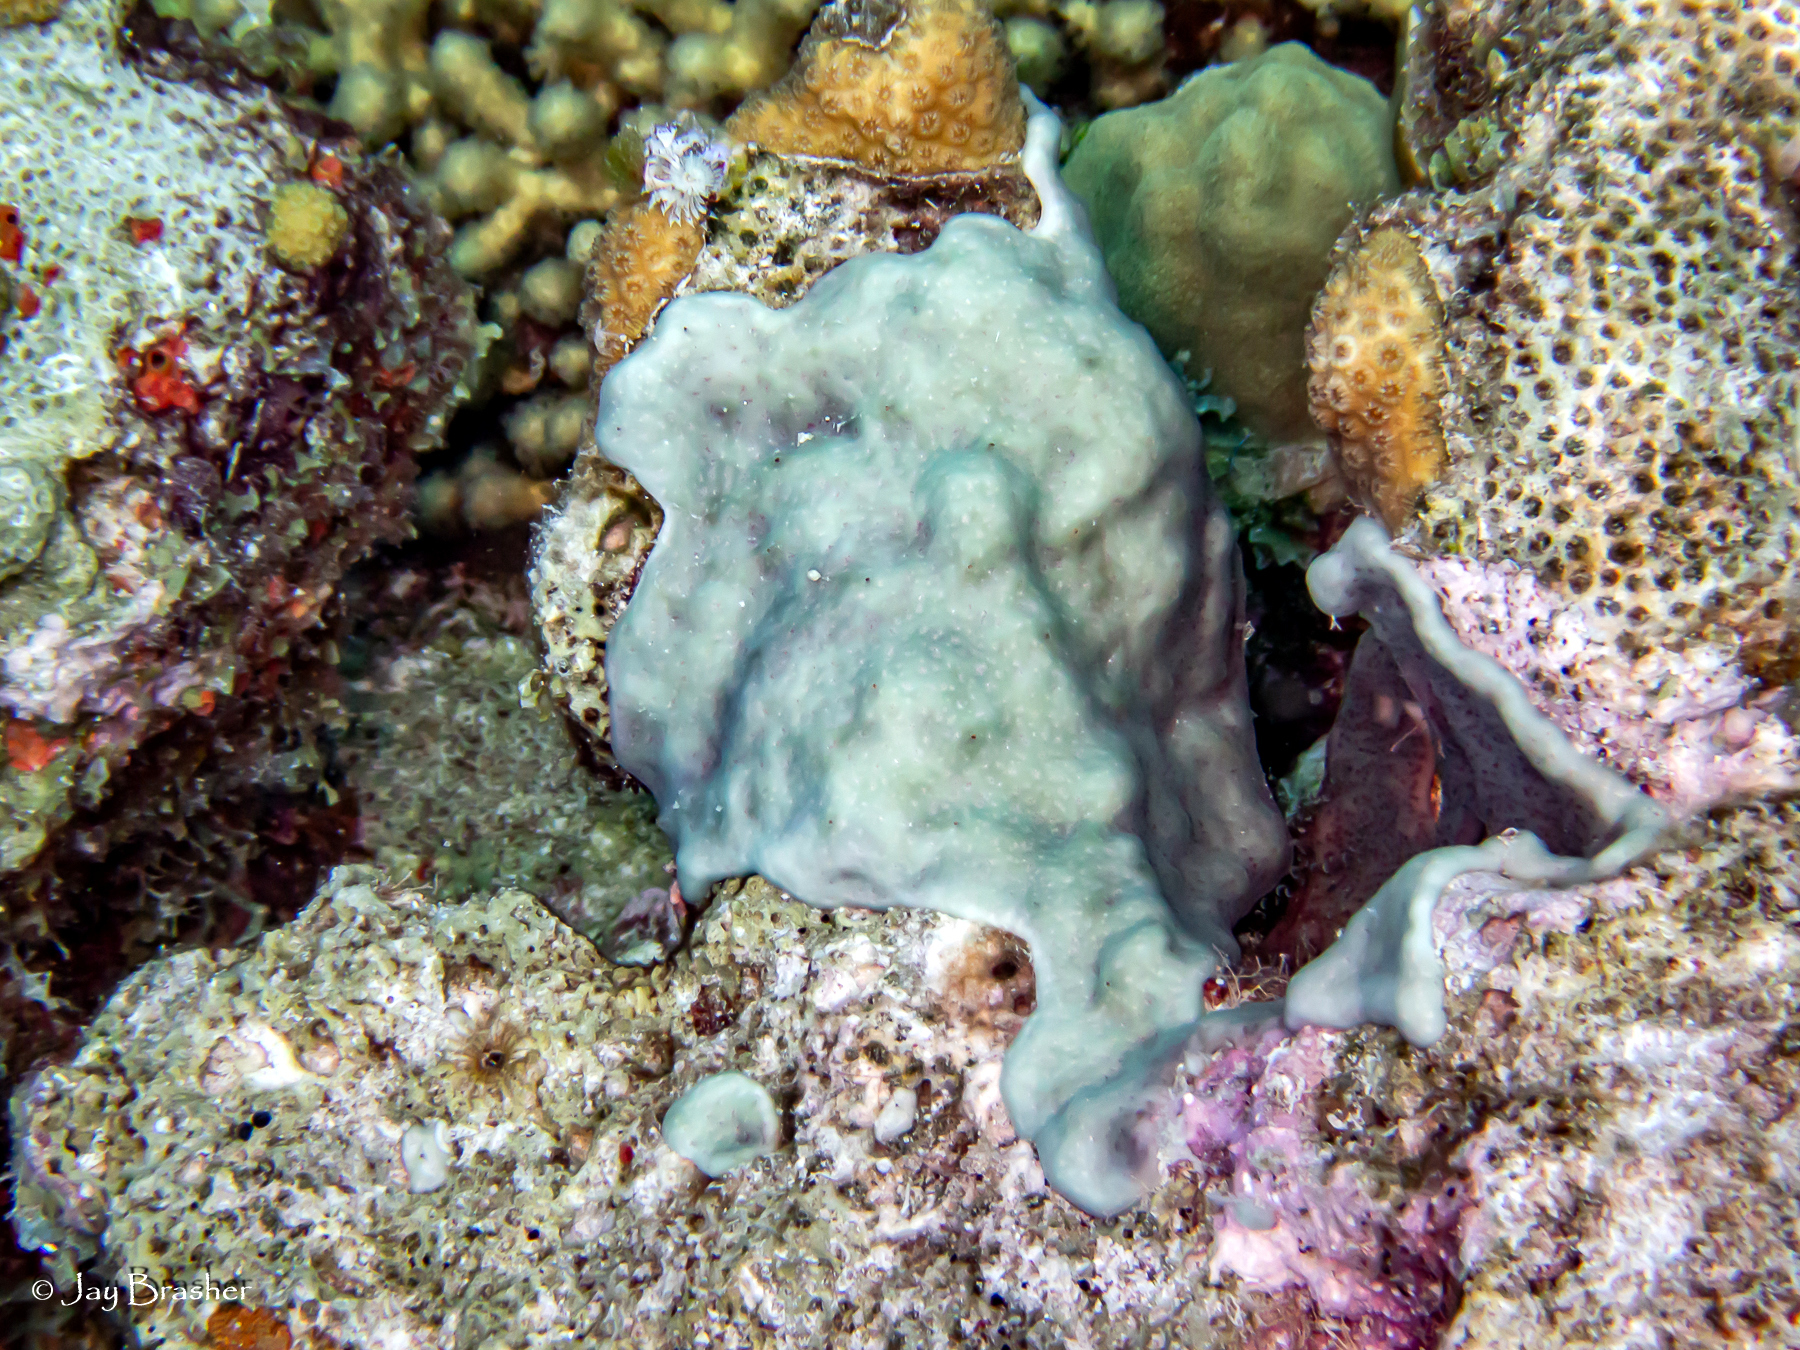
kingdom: Animalia
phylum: Chordata
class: Ascidiacea
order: Aplousobranchia
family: Didemnidae
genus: Trididemnum
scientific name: Trididemnum solidum
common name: Overgrowing mat tunicate
